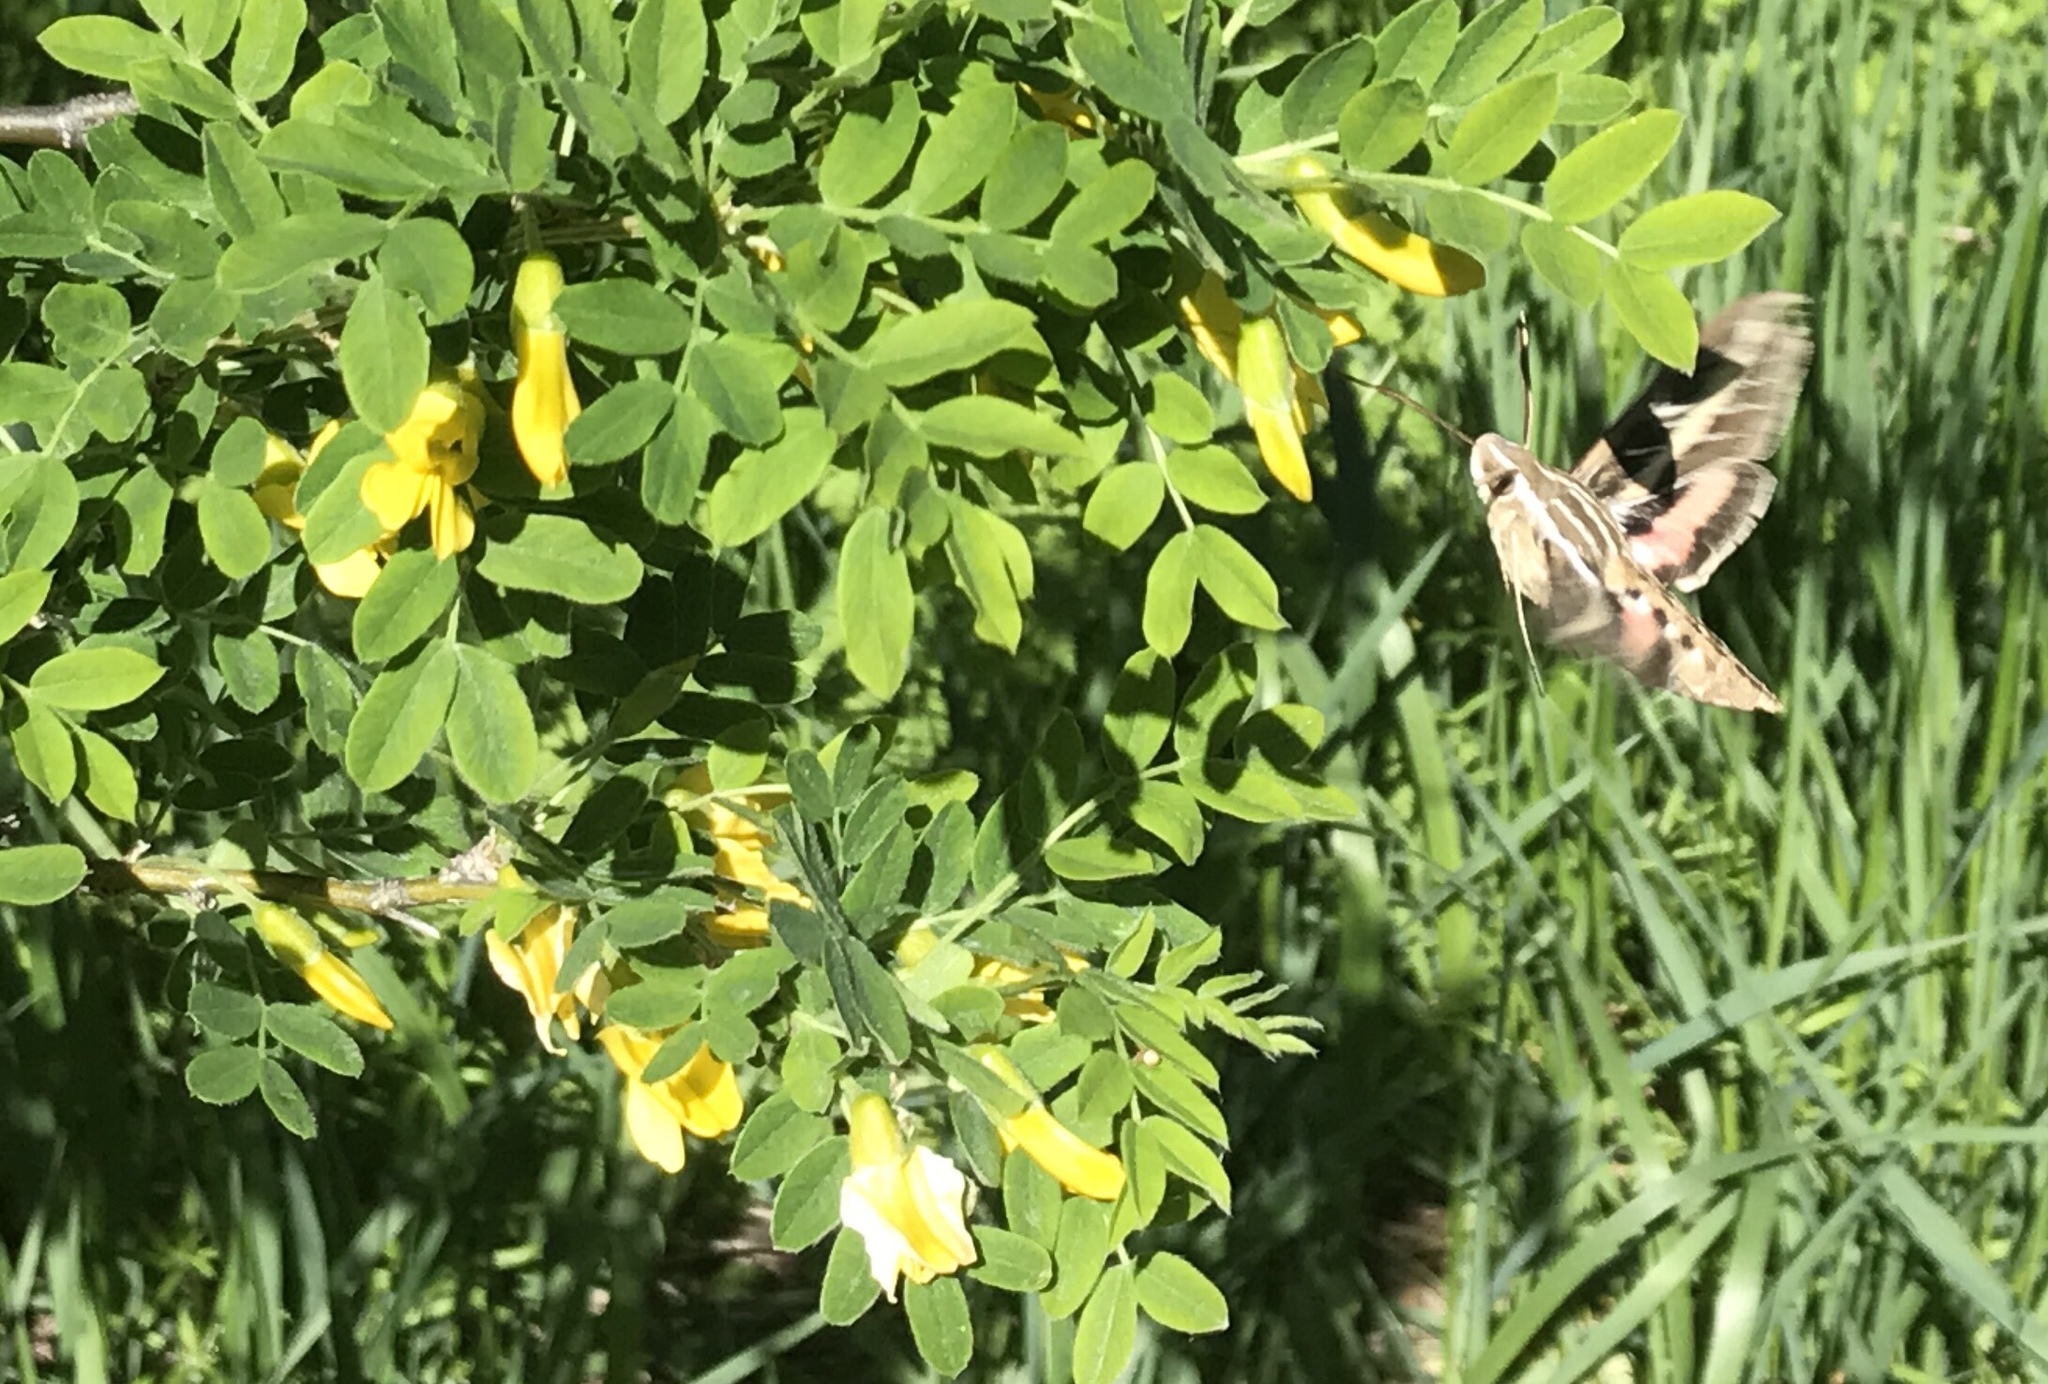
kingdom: Animalia
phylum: Arthropoda
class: Insecta
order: Lepidoptera
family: Sphingidae
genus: Hyles
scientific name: Hyles lineata
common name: White-lined sphinx
